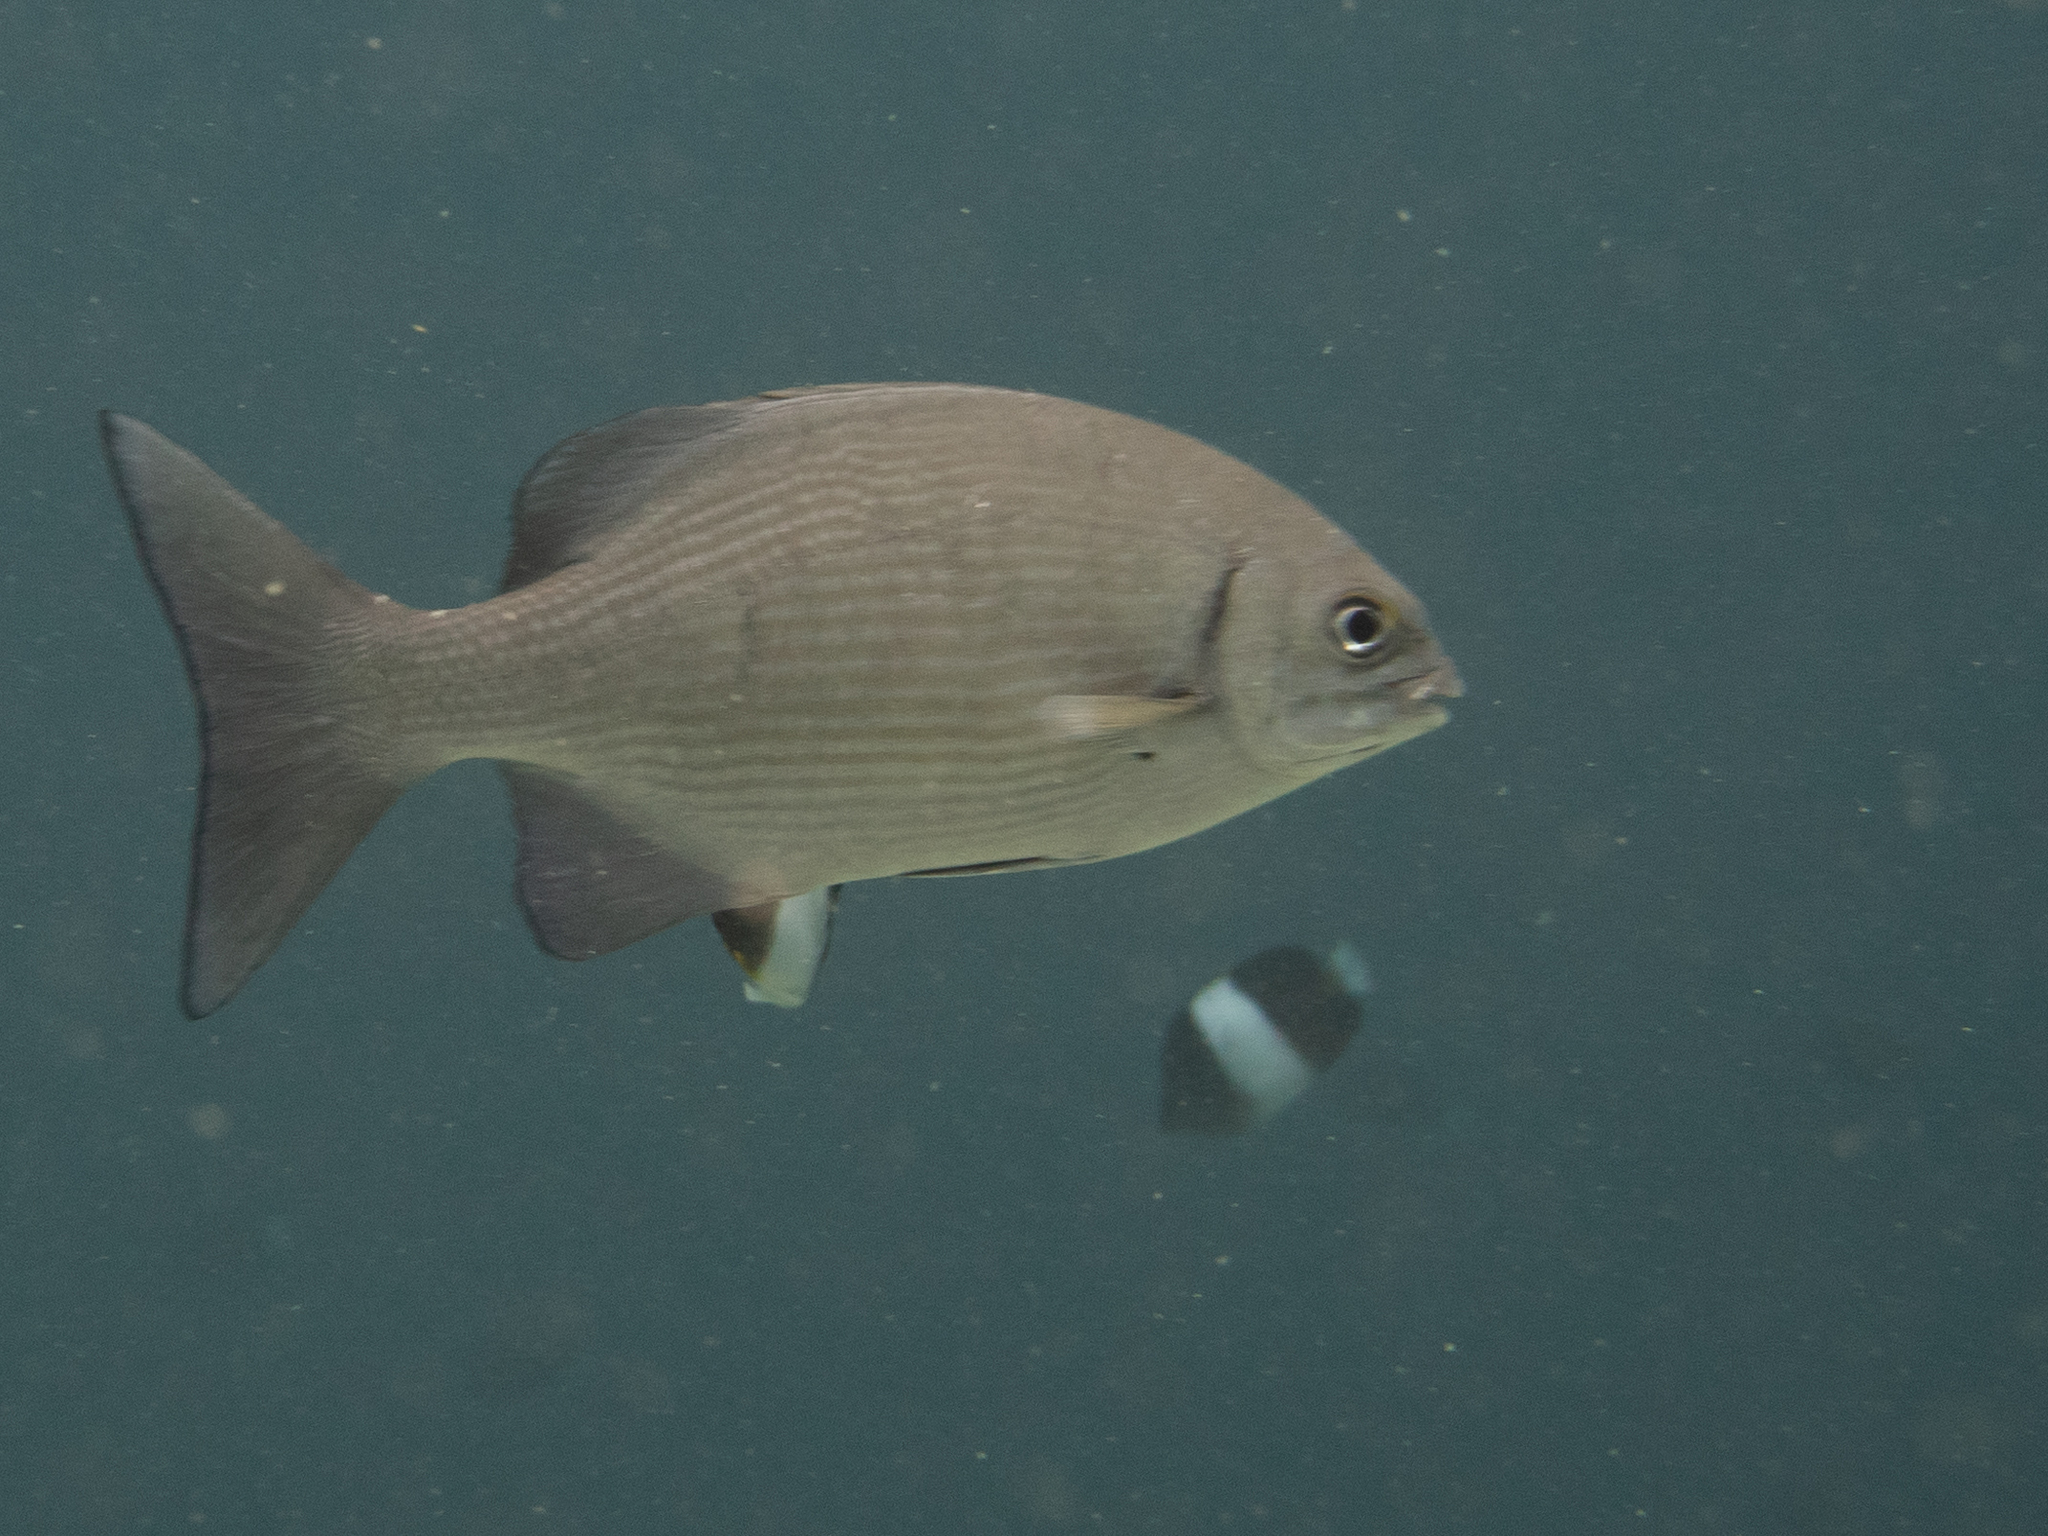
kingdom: Animalia
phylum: Chordata
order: Perciformes
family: Kyphosidae
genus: Kyphosus
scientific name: Kyphosus cinerascens
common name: Topsail drummer
